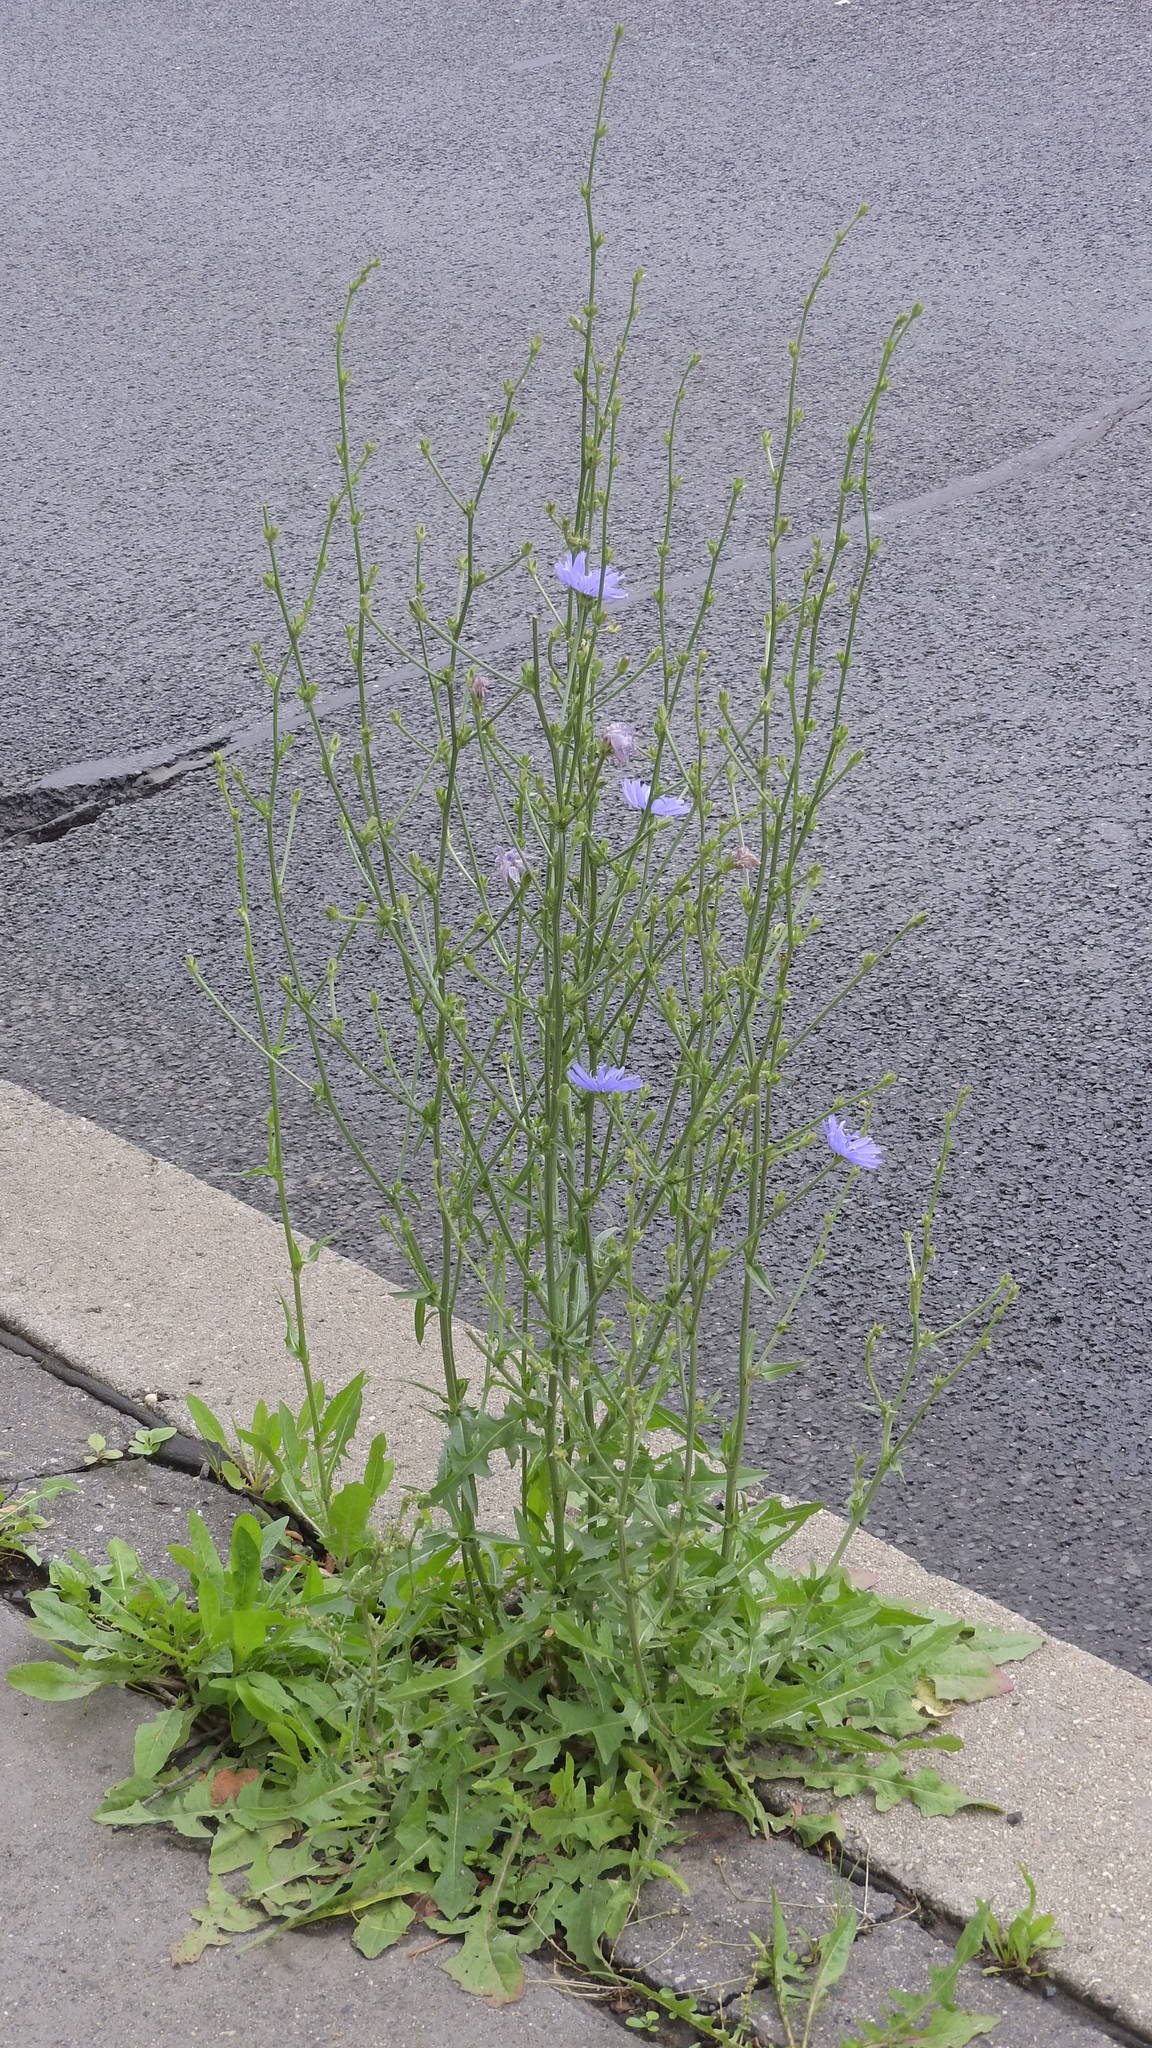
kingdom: Plantae
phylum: Tracheophyta
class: Magnoliopsida
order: Asterales
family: Asteraceae
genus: Cichorium
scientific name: Cichorium intybus
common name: Chicory
